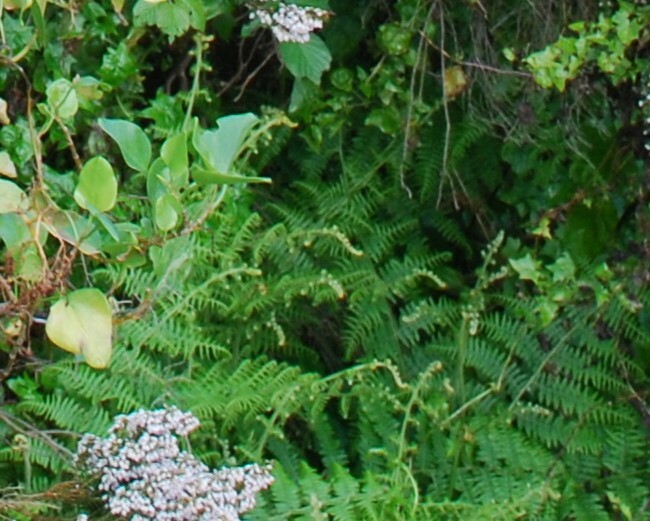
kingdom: Plantae
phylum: Tracheophyta
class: Polypodiopsida
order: Polypodiales
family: Dennstaedtiaceae
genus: Pteridium
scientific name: Pteridium aquilinum
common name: Bracken
